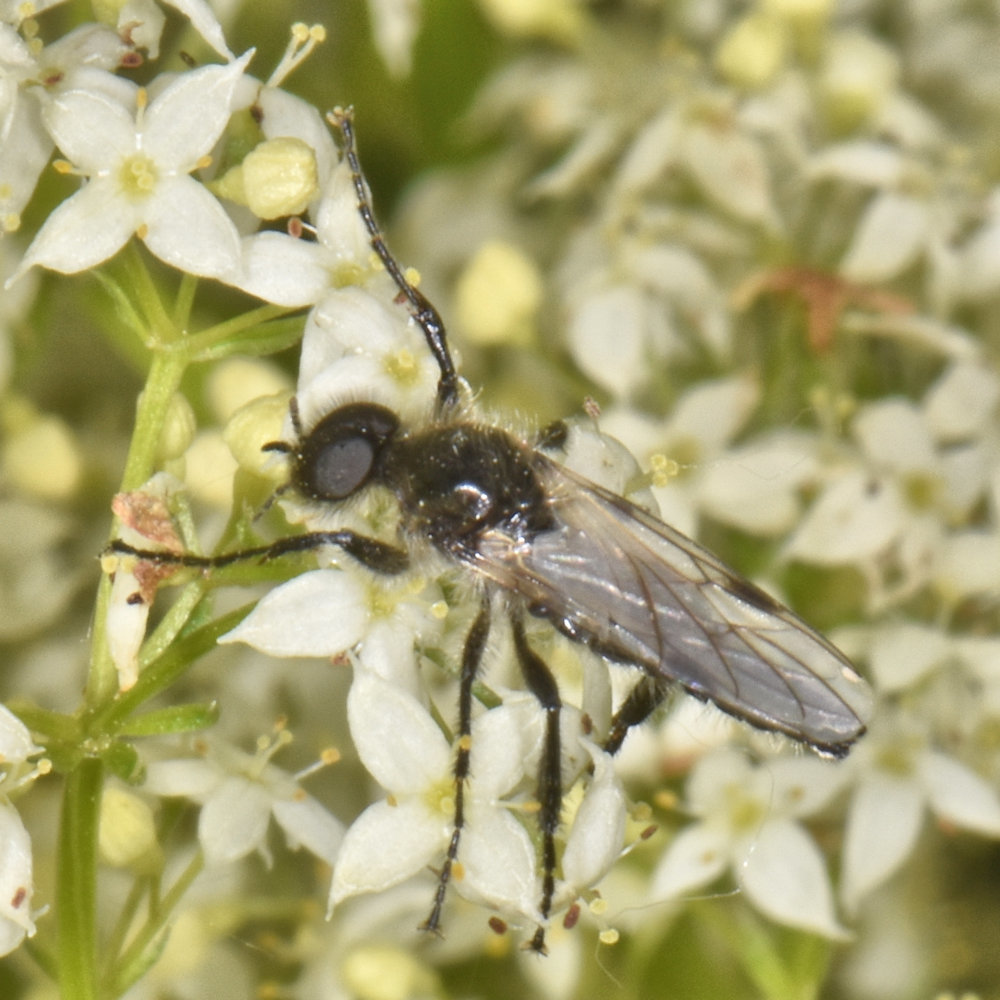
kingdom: Animalia
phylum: Arthropoda
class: Insecta
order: Diptera
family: Bibionidae
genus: Bibio
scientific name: Bibio albipennis
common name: White-winged march fly
